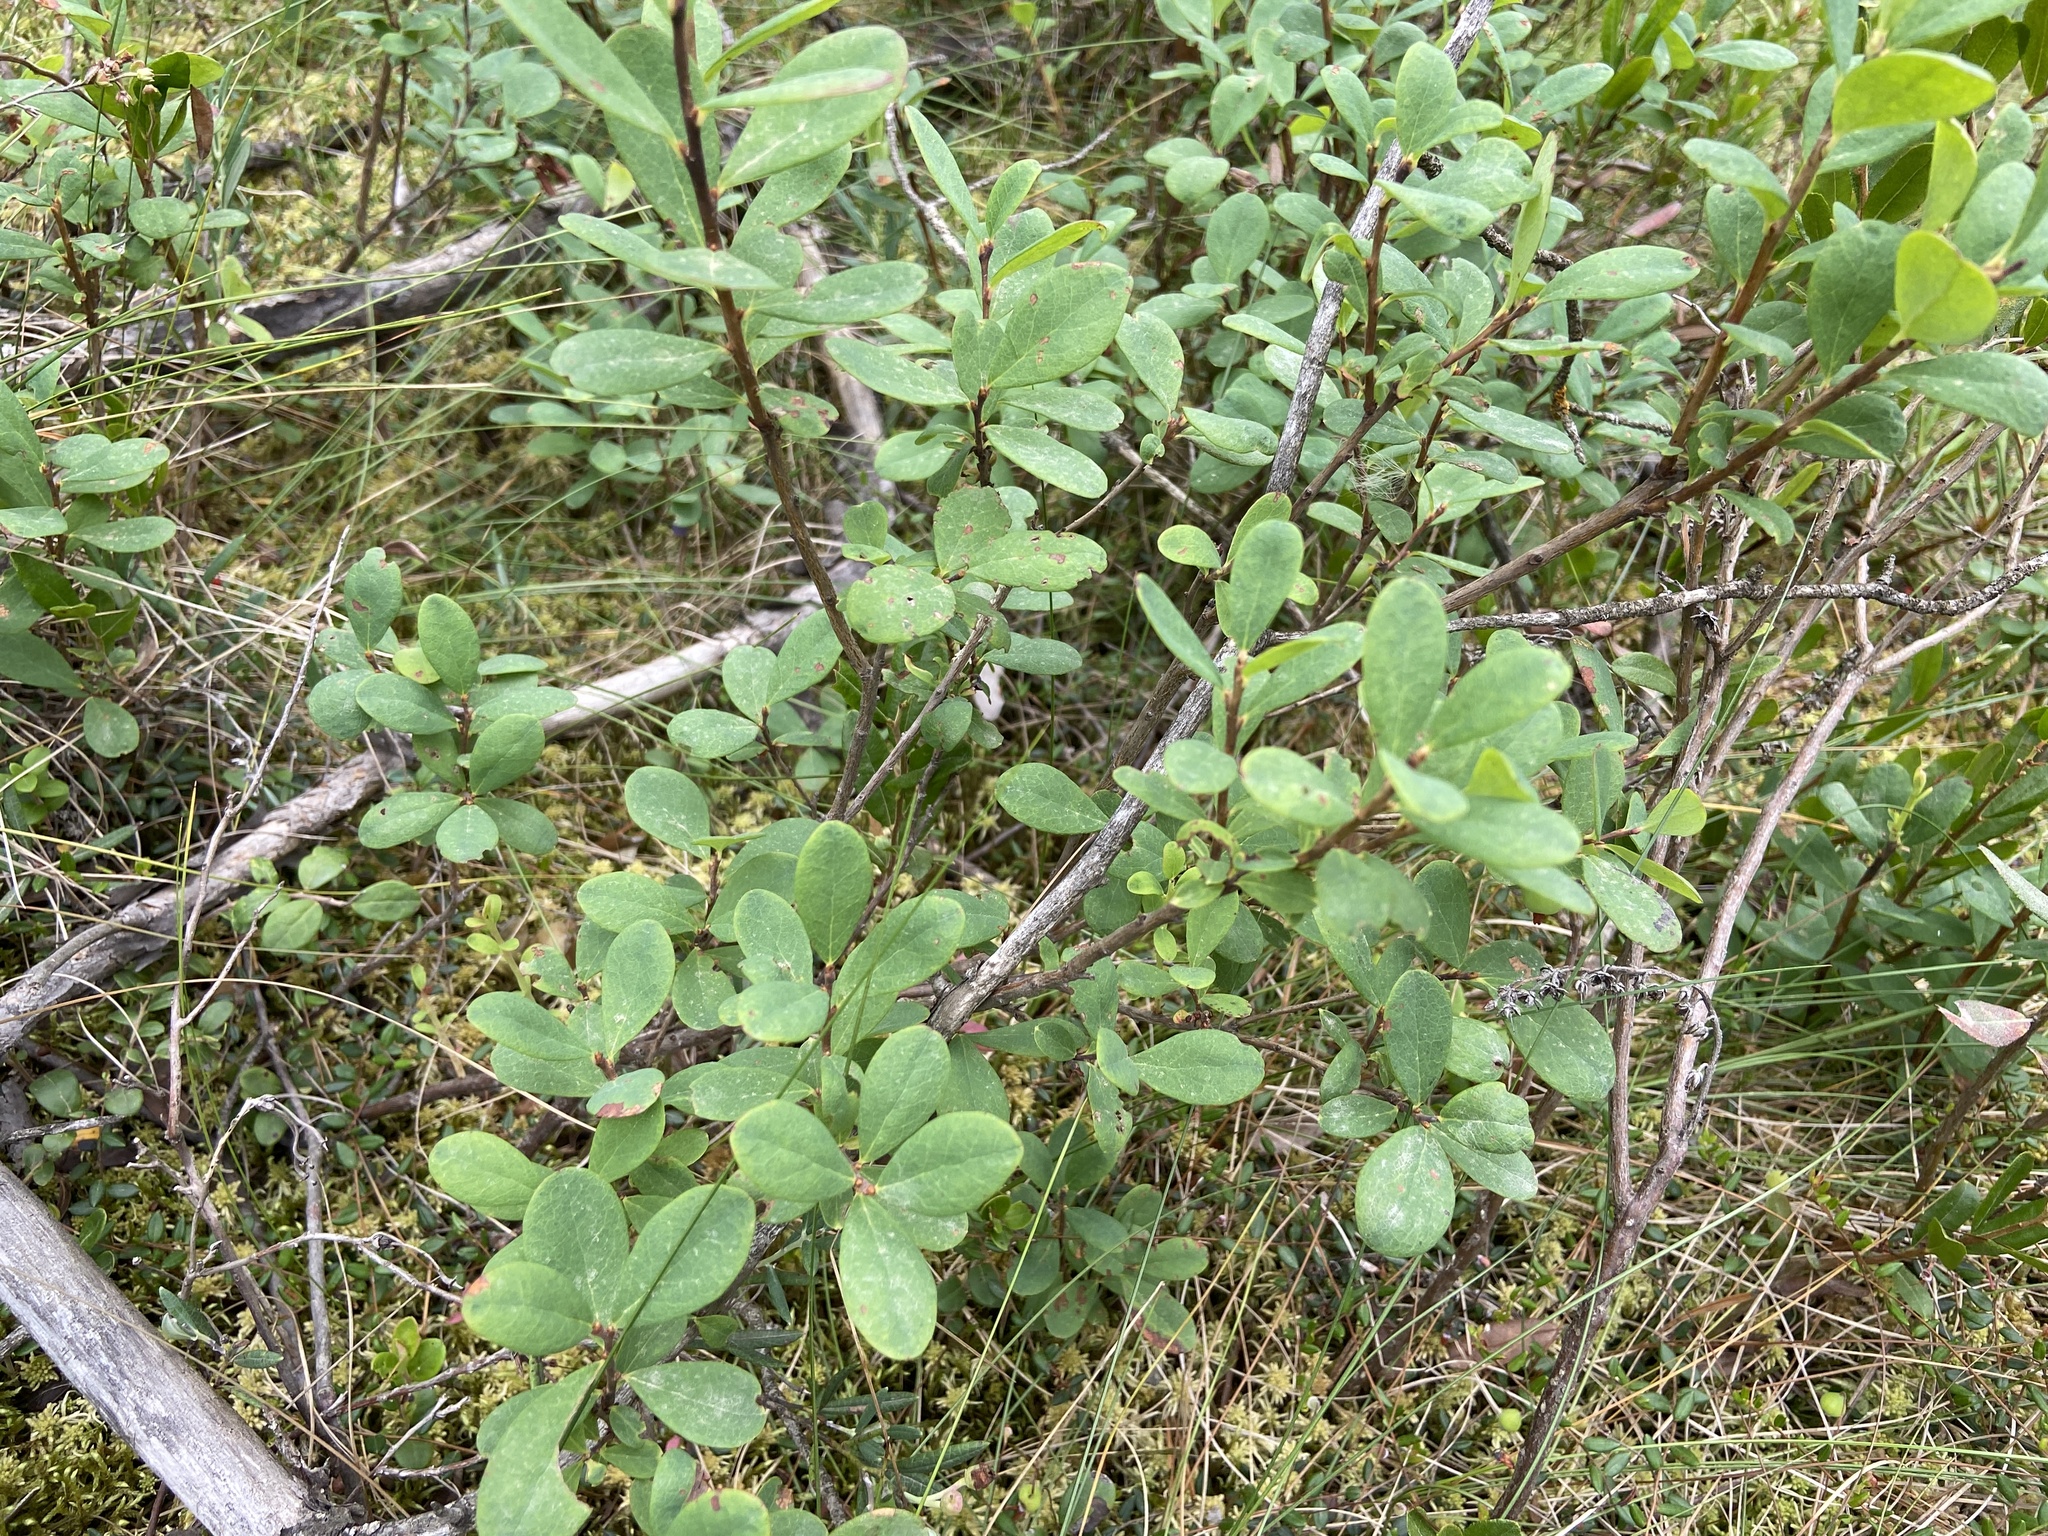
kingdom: Plantae
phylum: Tracheophyta
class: Magnoliopsida
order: Ericales
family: Ericaceae
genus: Vaccinium
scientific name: Vaccinium uliginosum
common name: Bog bilberry
